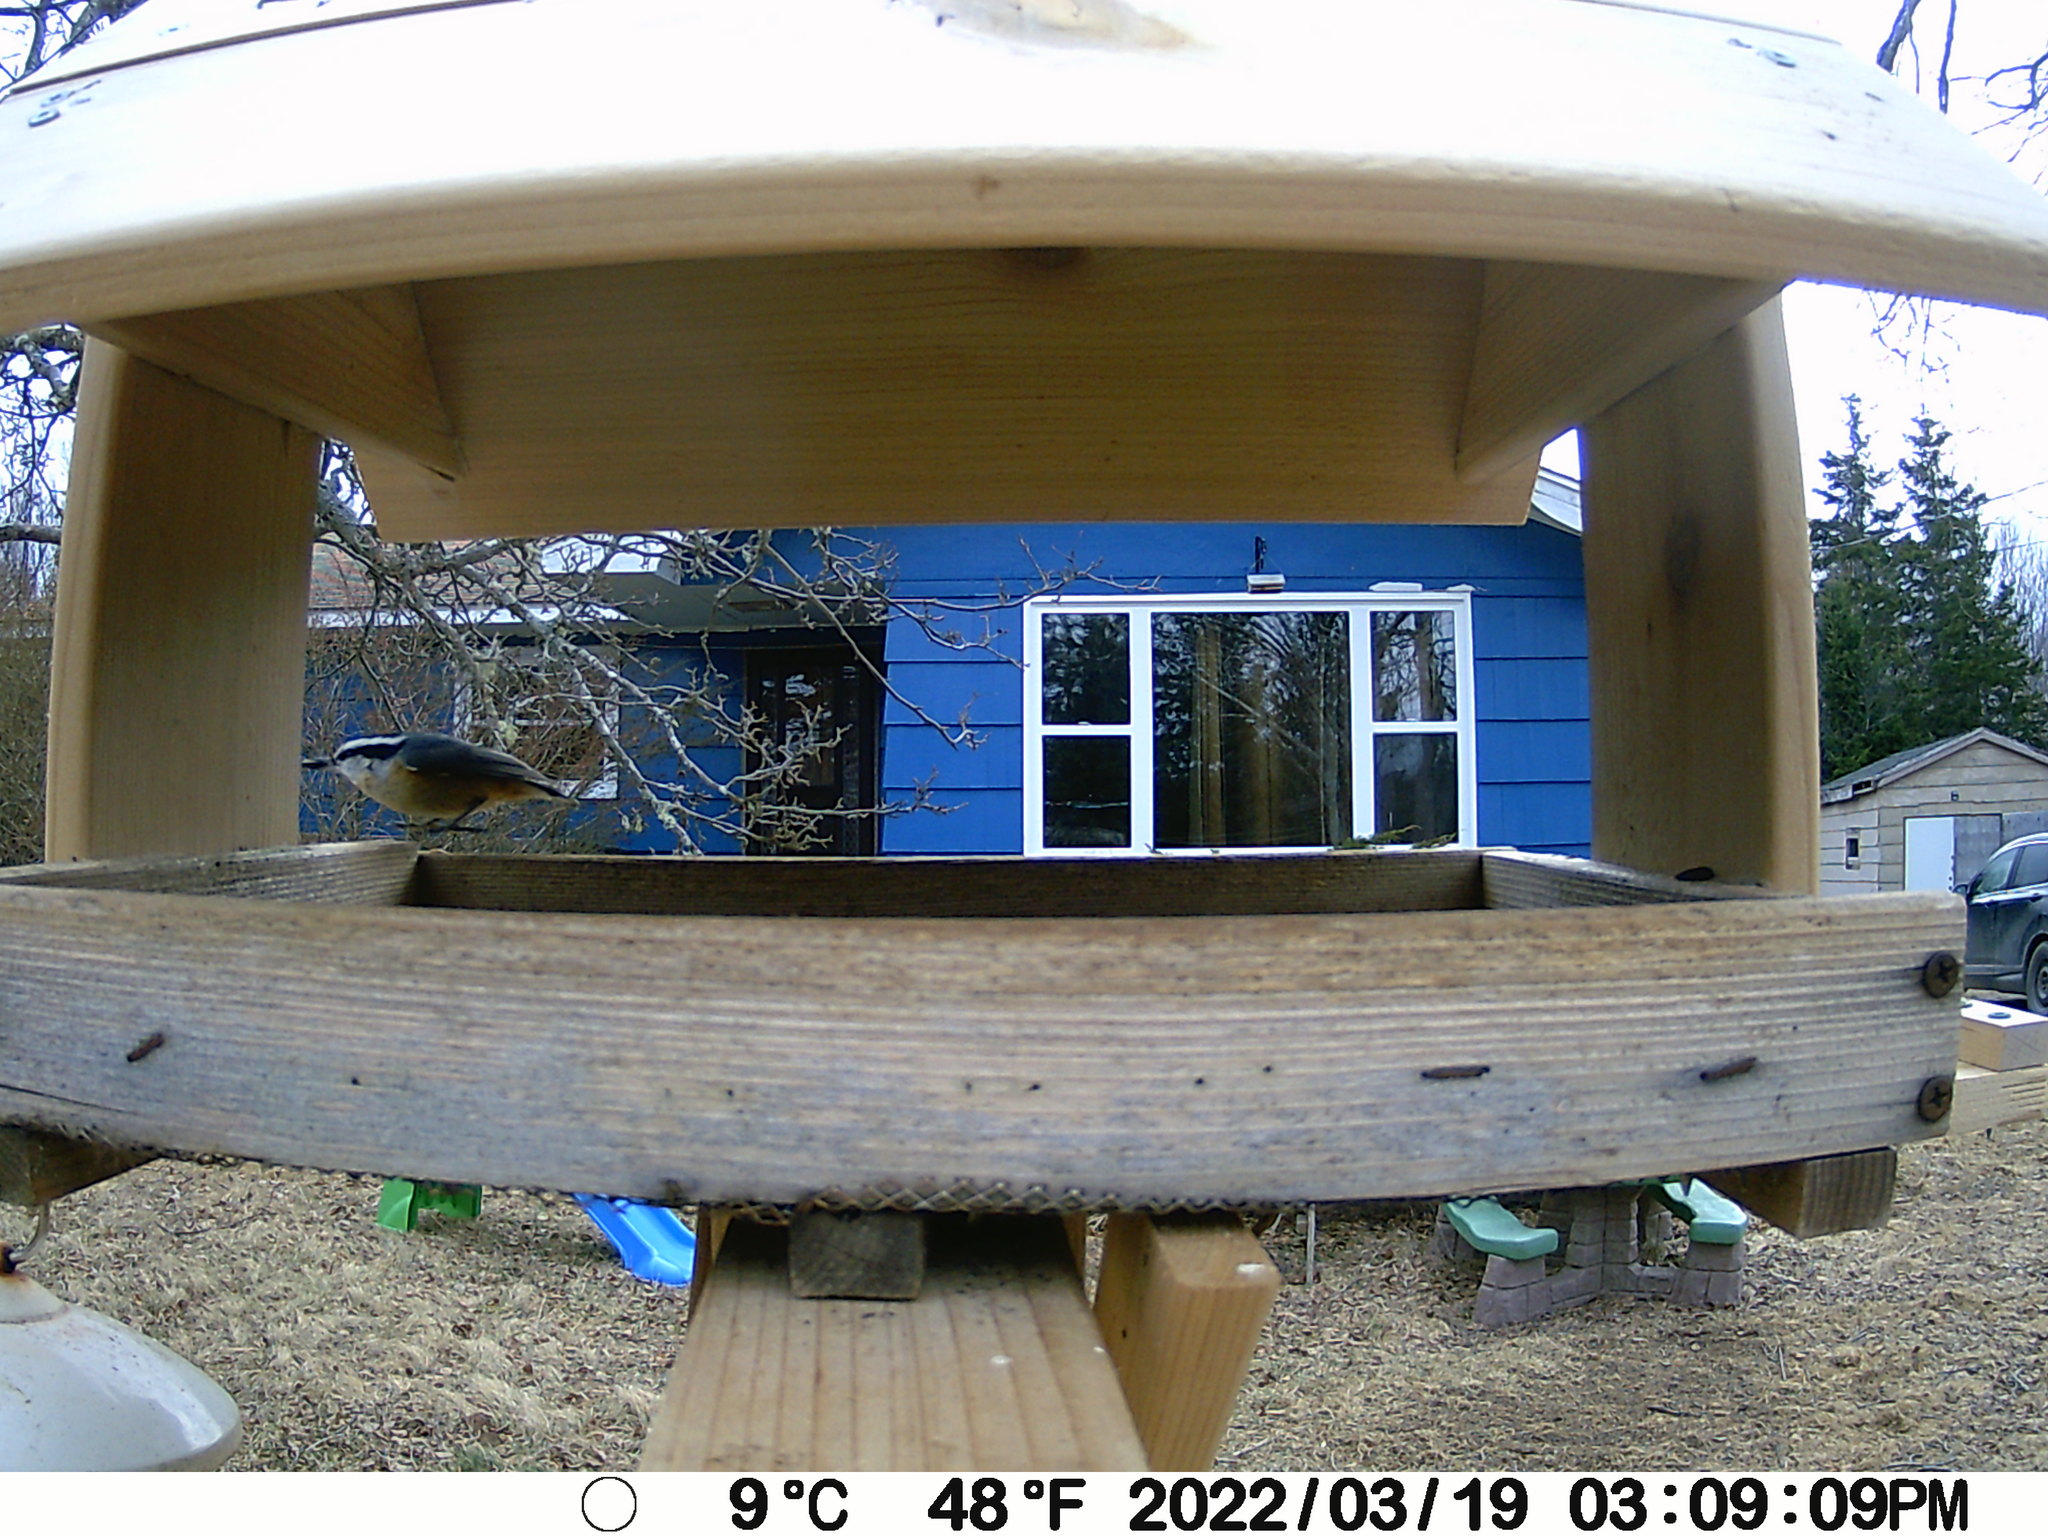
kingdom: Animalia
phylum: Chordata
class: Aves
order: Passeriformes
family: Sittidae
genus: Sitta
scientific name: Sitta canadensis
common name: Red-breasted nuthatch
